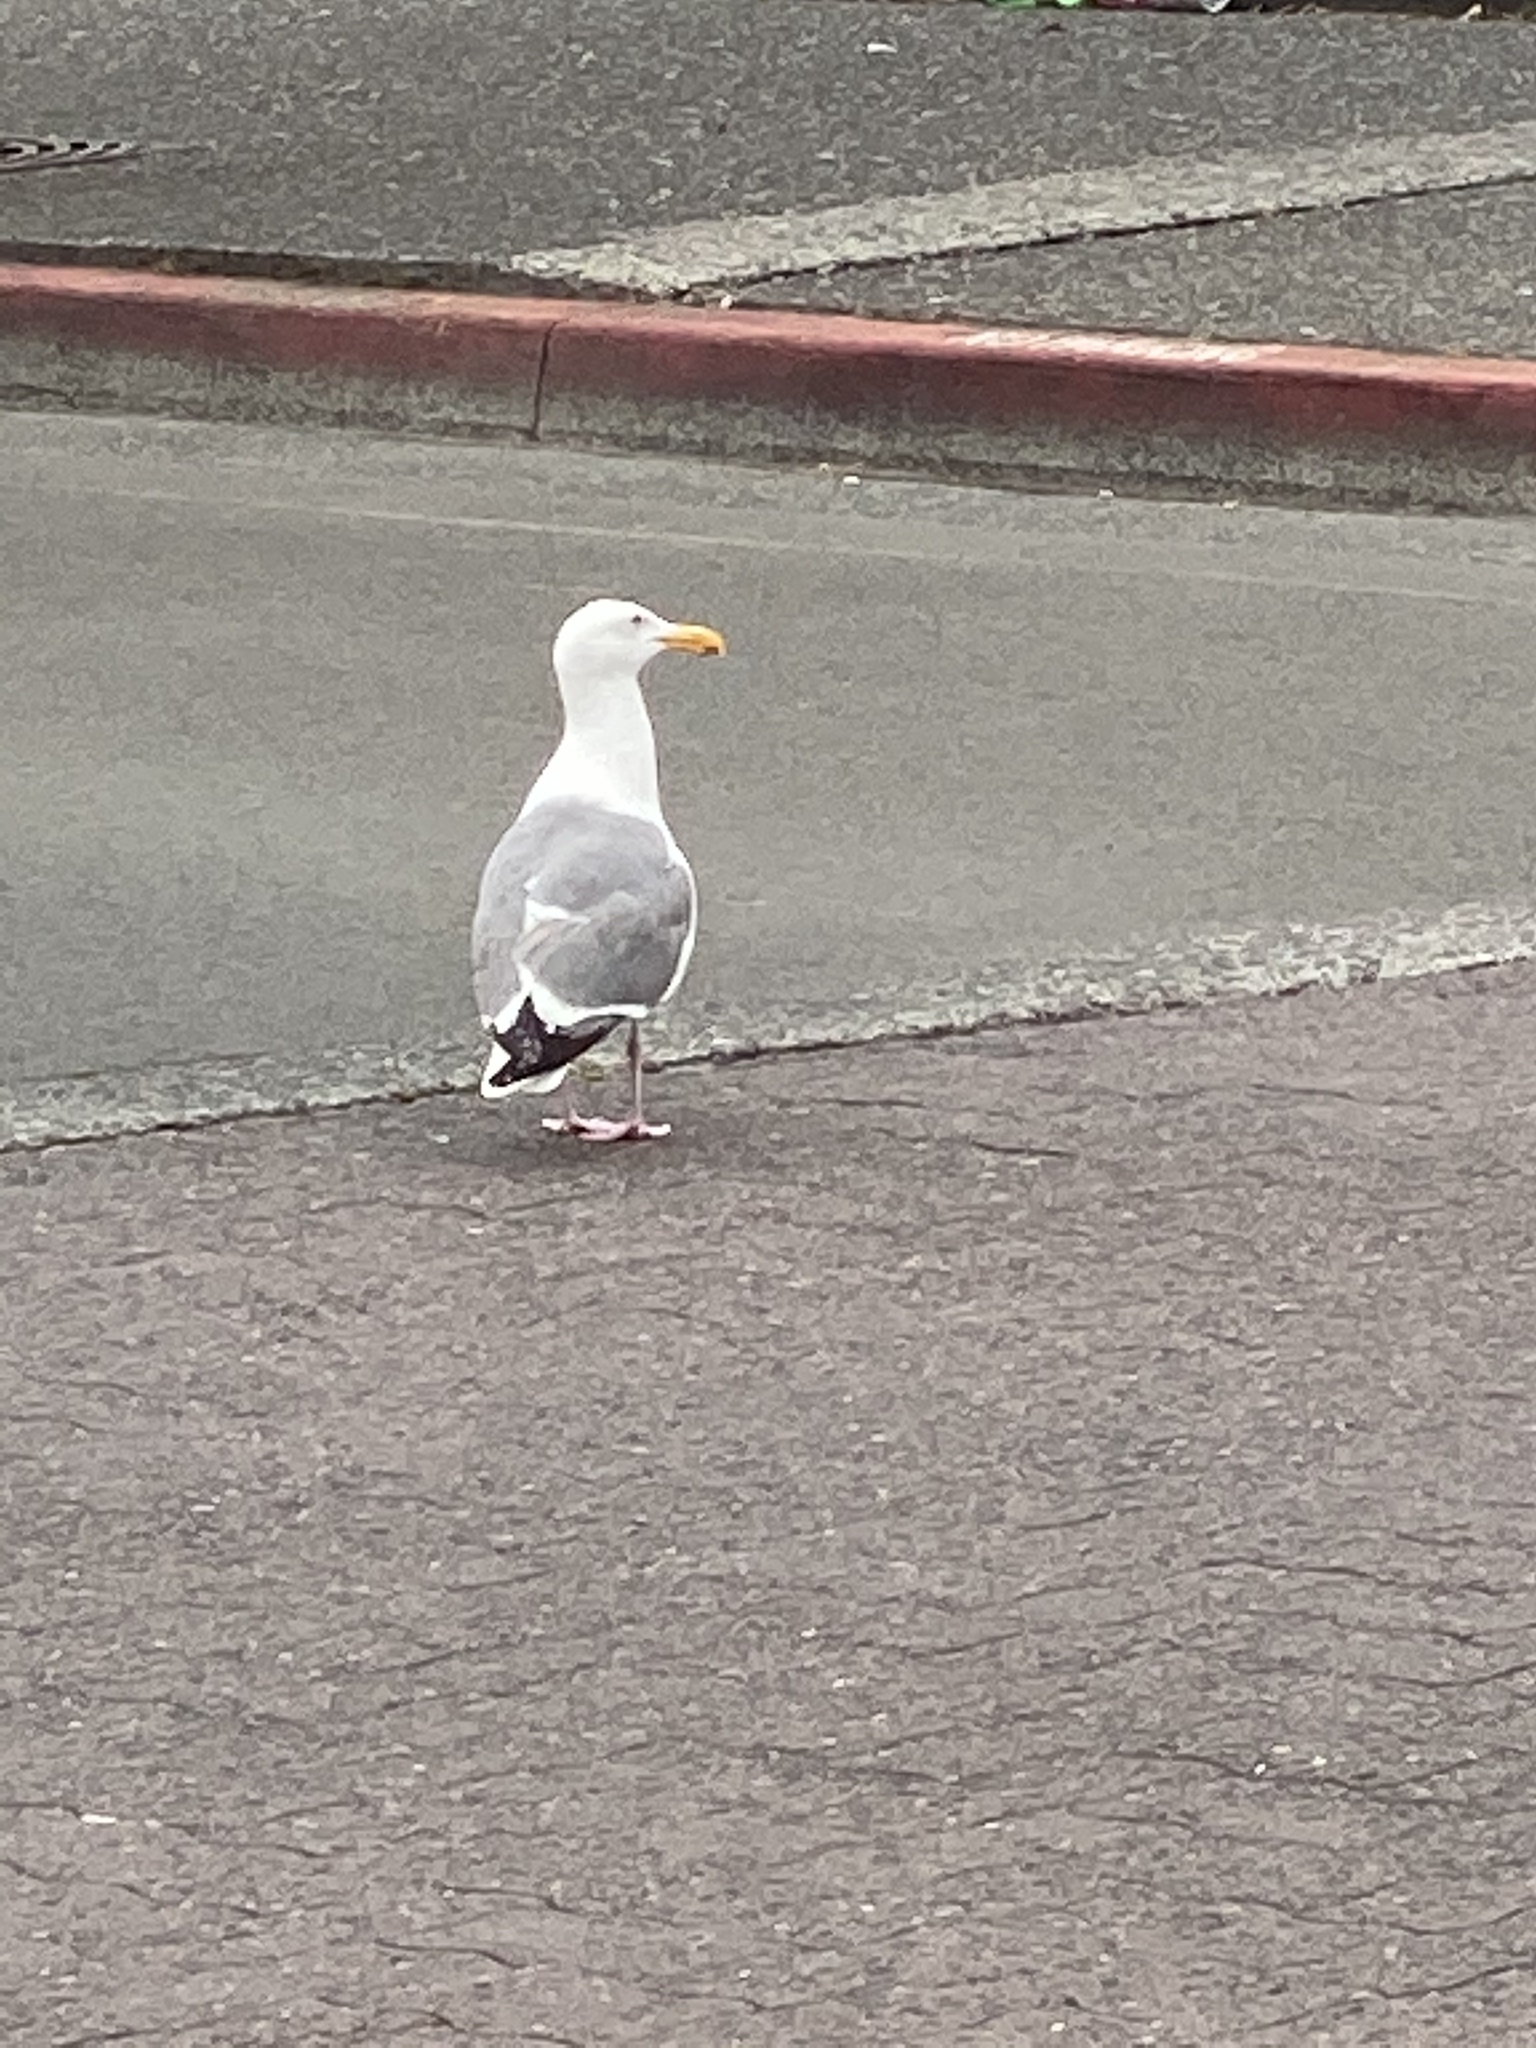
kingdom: Animalia
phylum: Chordata
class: Aves
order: Charadriiformes
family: Laridae
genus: Larus
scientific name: Larus occidentalis
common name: Western gull
